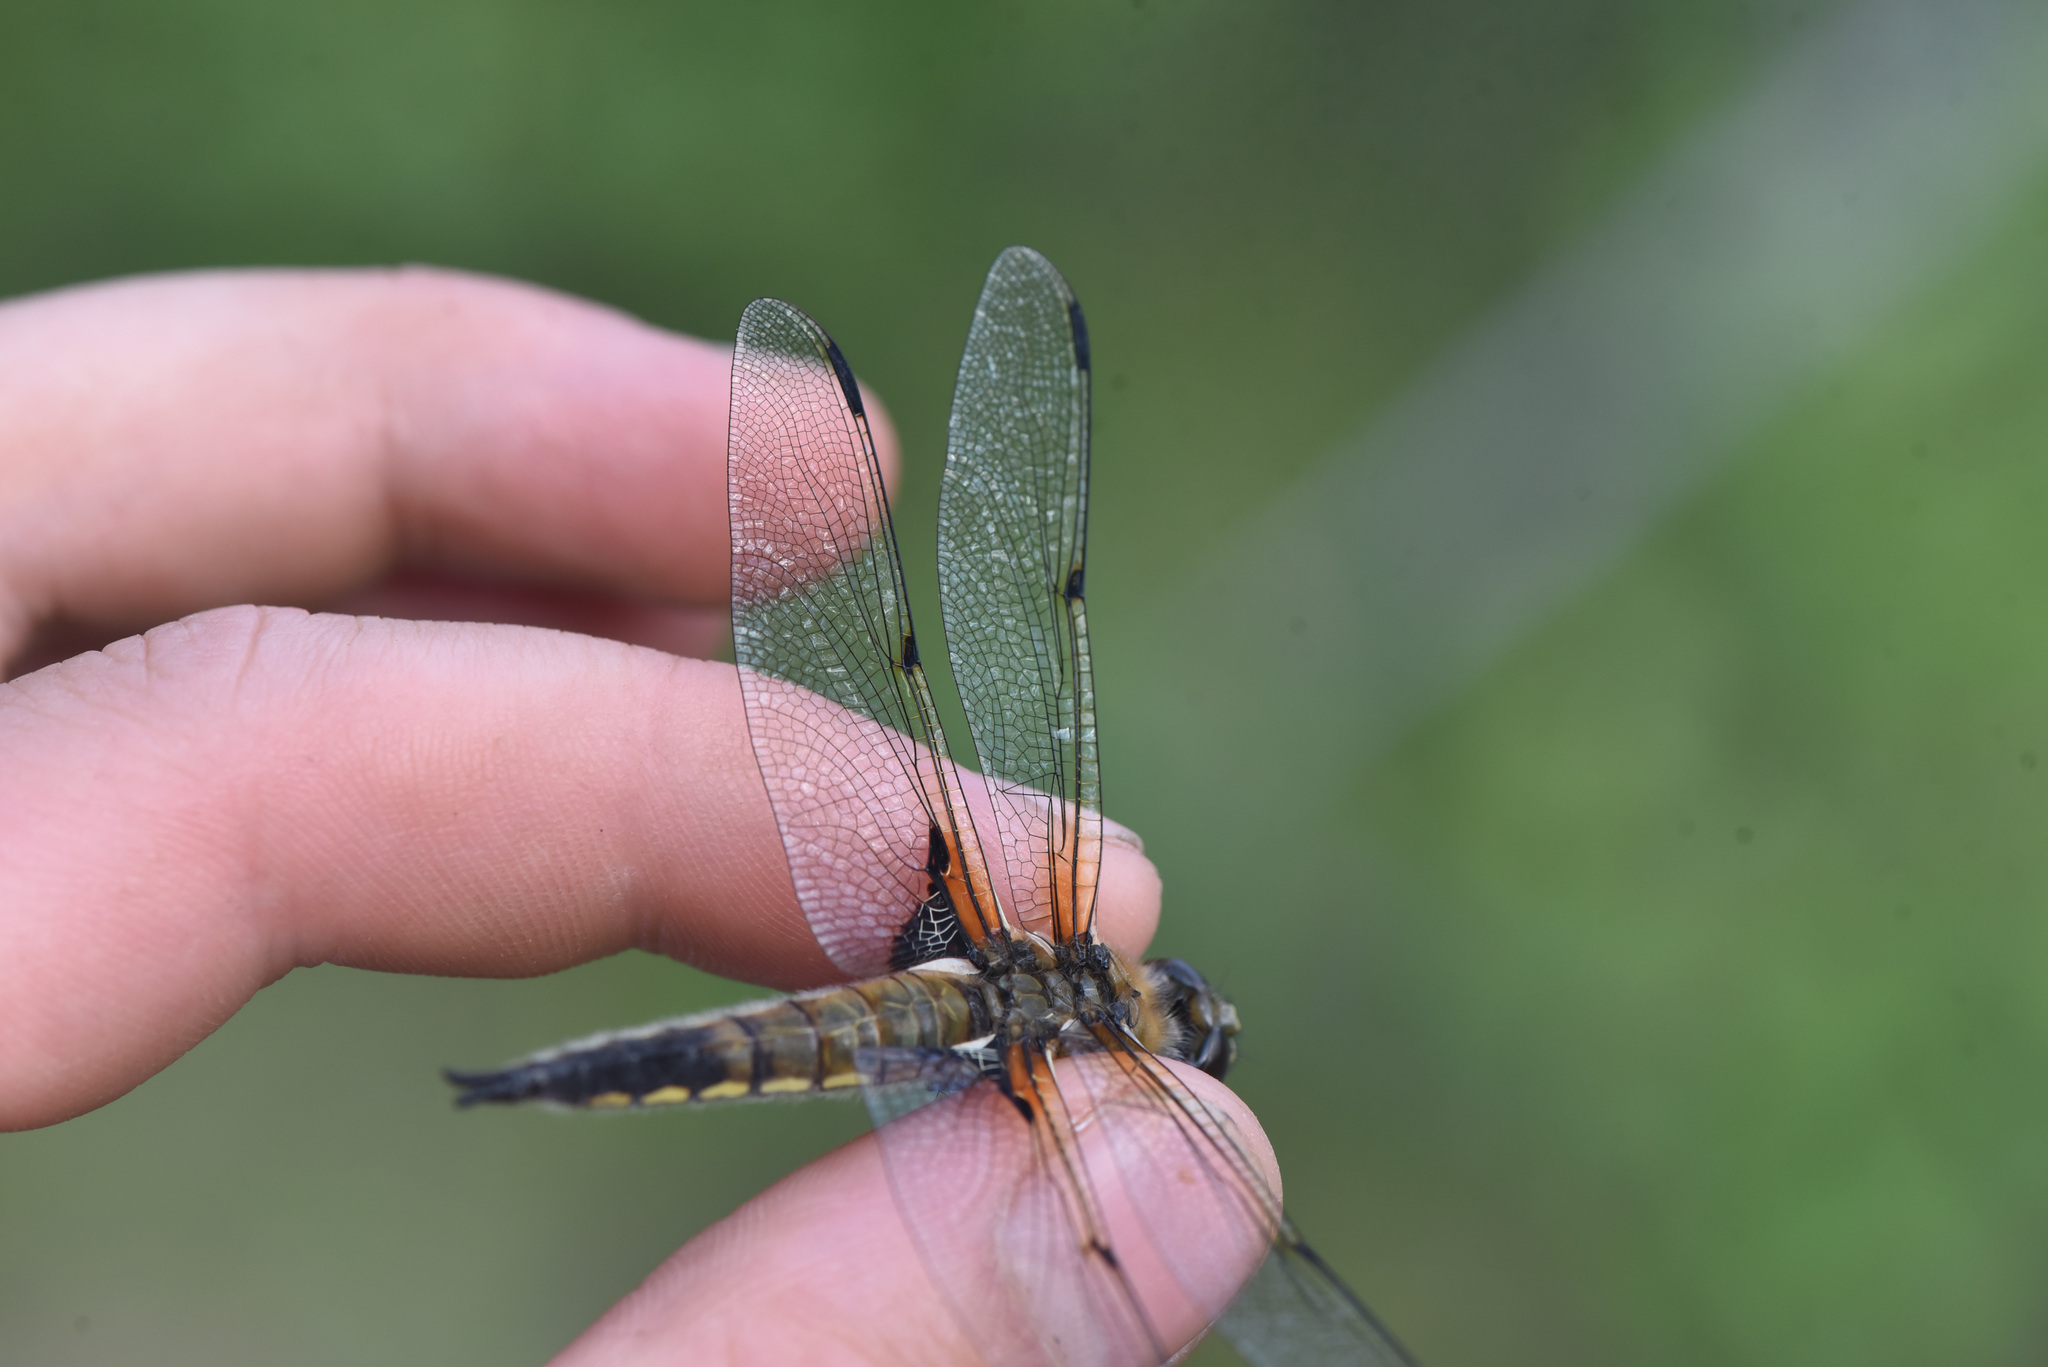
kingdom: Animalia
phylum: Arthropoda
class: Insecta
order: Odonata
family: Libellulidae
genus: Libellula
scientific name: Libellula quadrimaculata
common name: Four-spotted chaser
